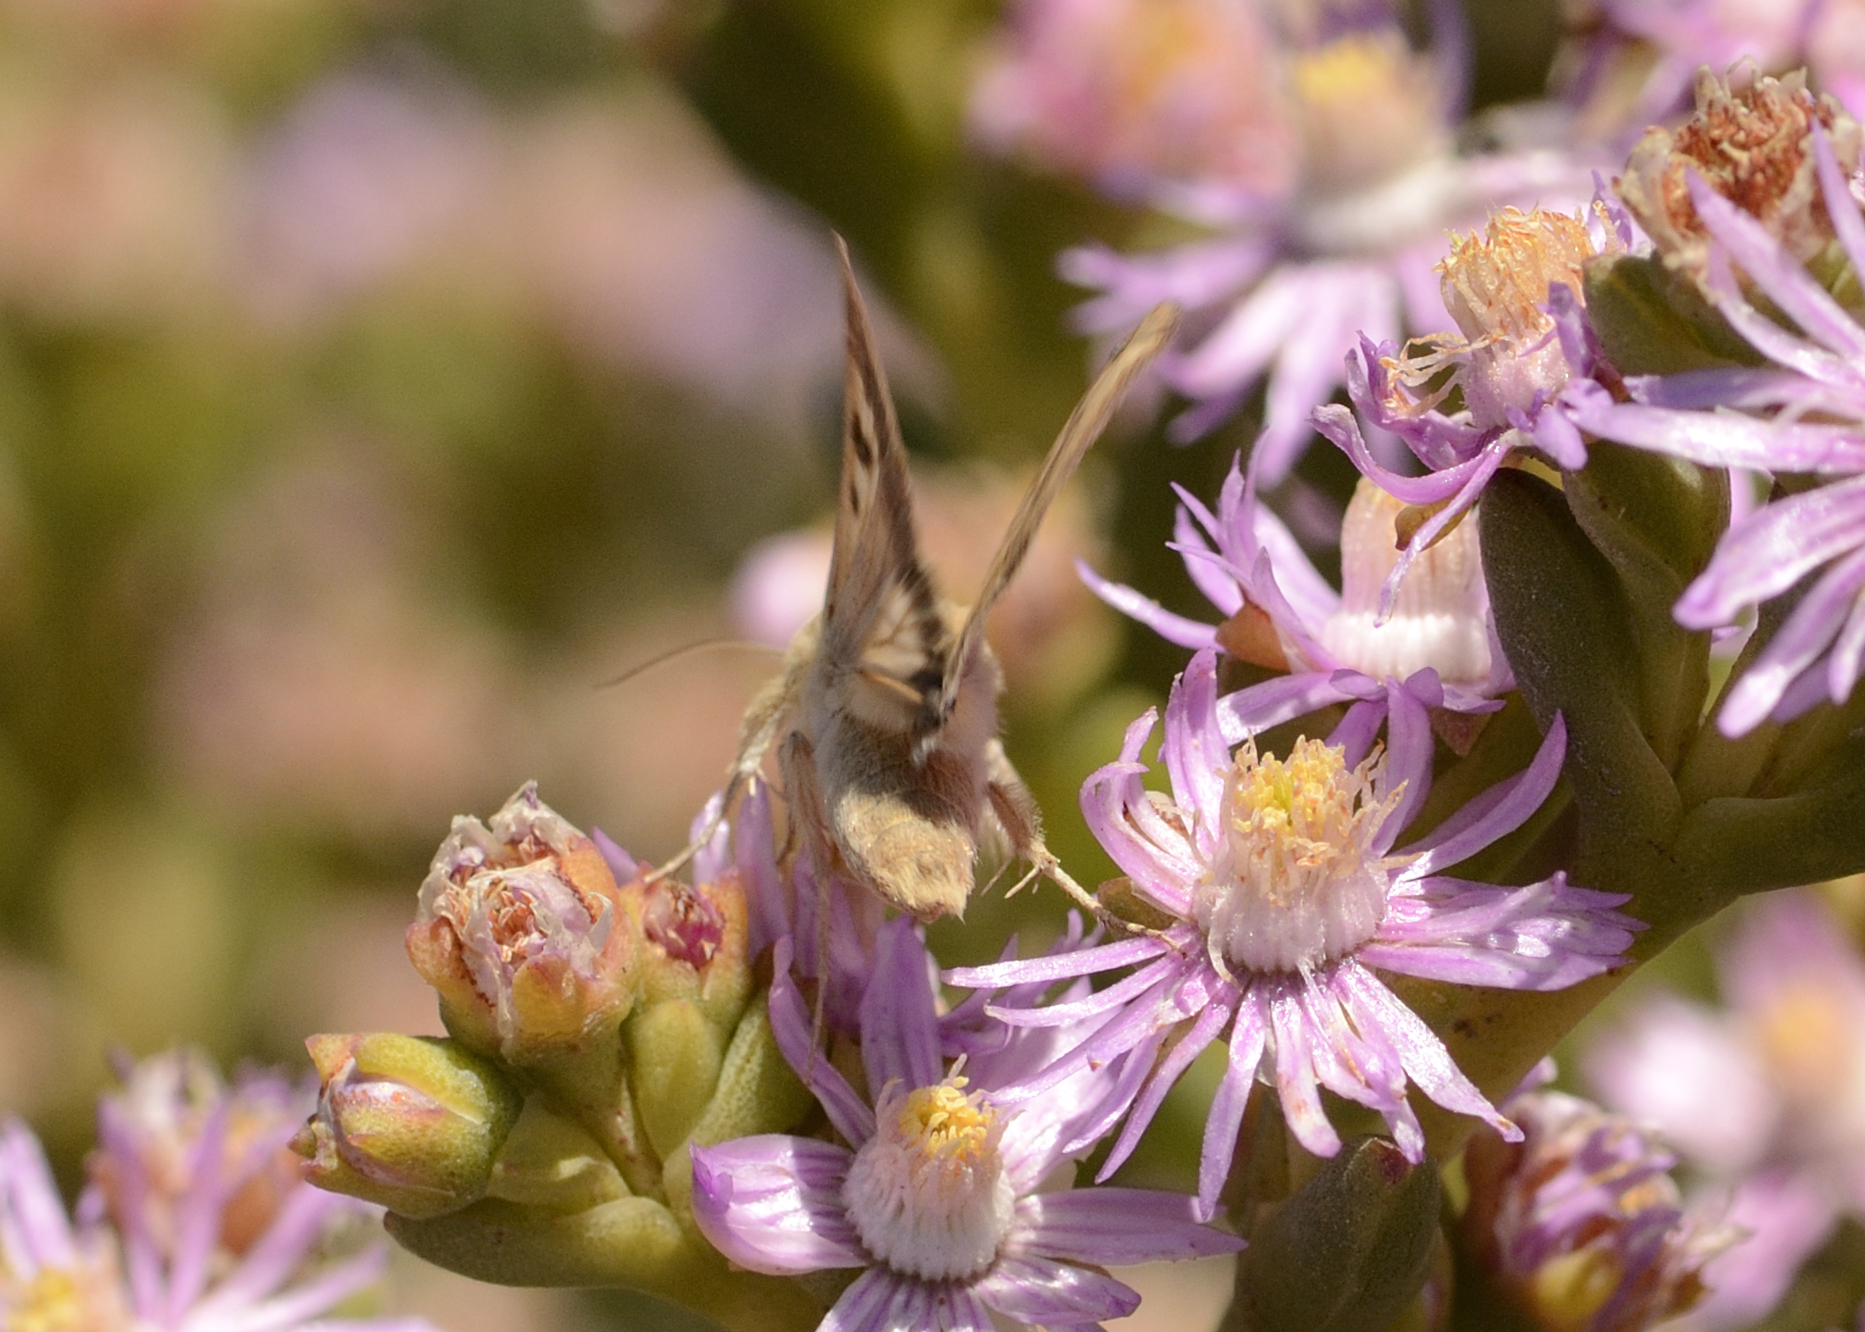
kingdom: Animalia
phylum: Arthropoda
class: Insecta
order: Lepidoptera
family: Noctuidae
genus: Helicoverpa
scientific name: Helicoverpa armigera
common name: Cotton bollworm
